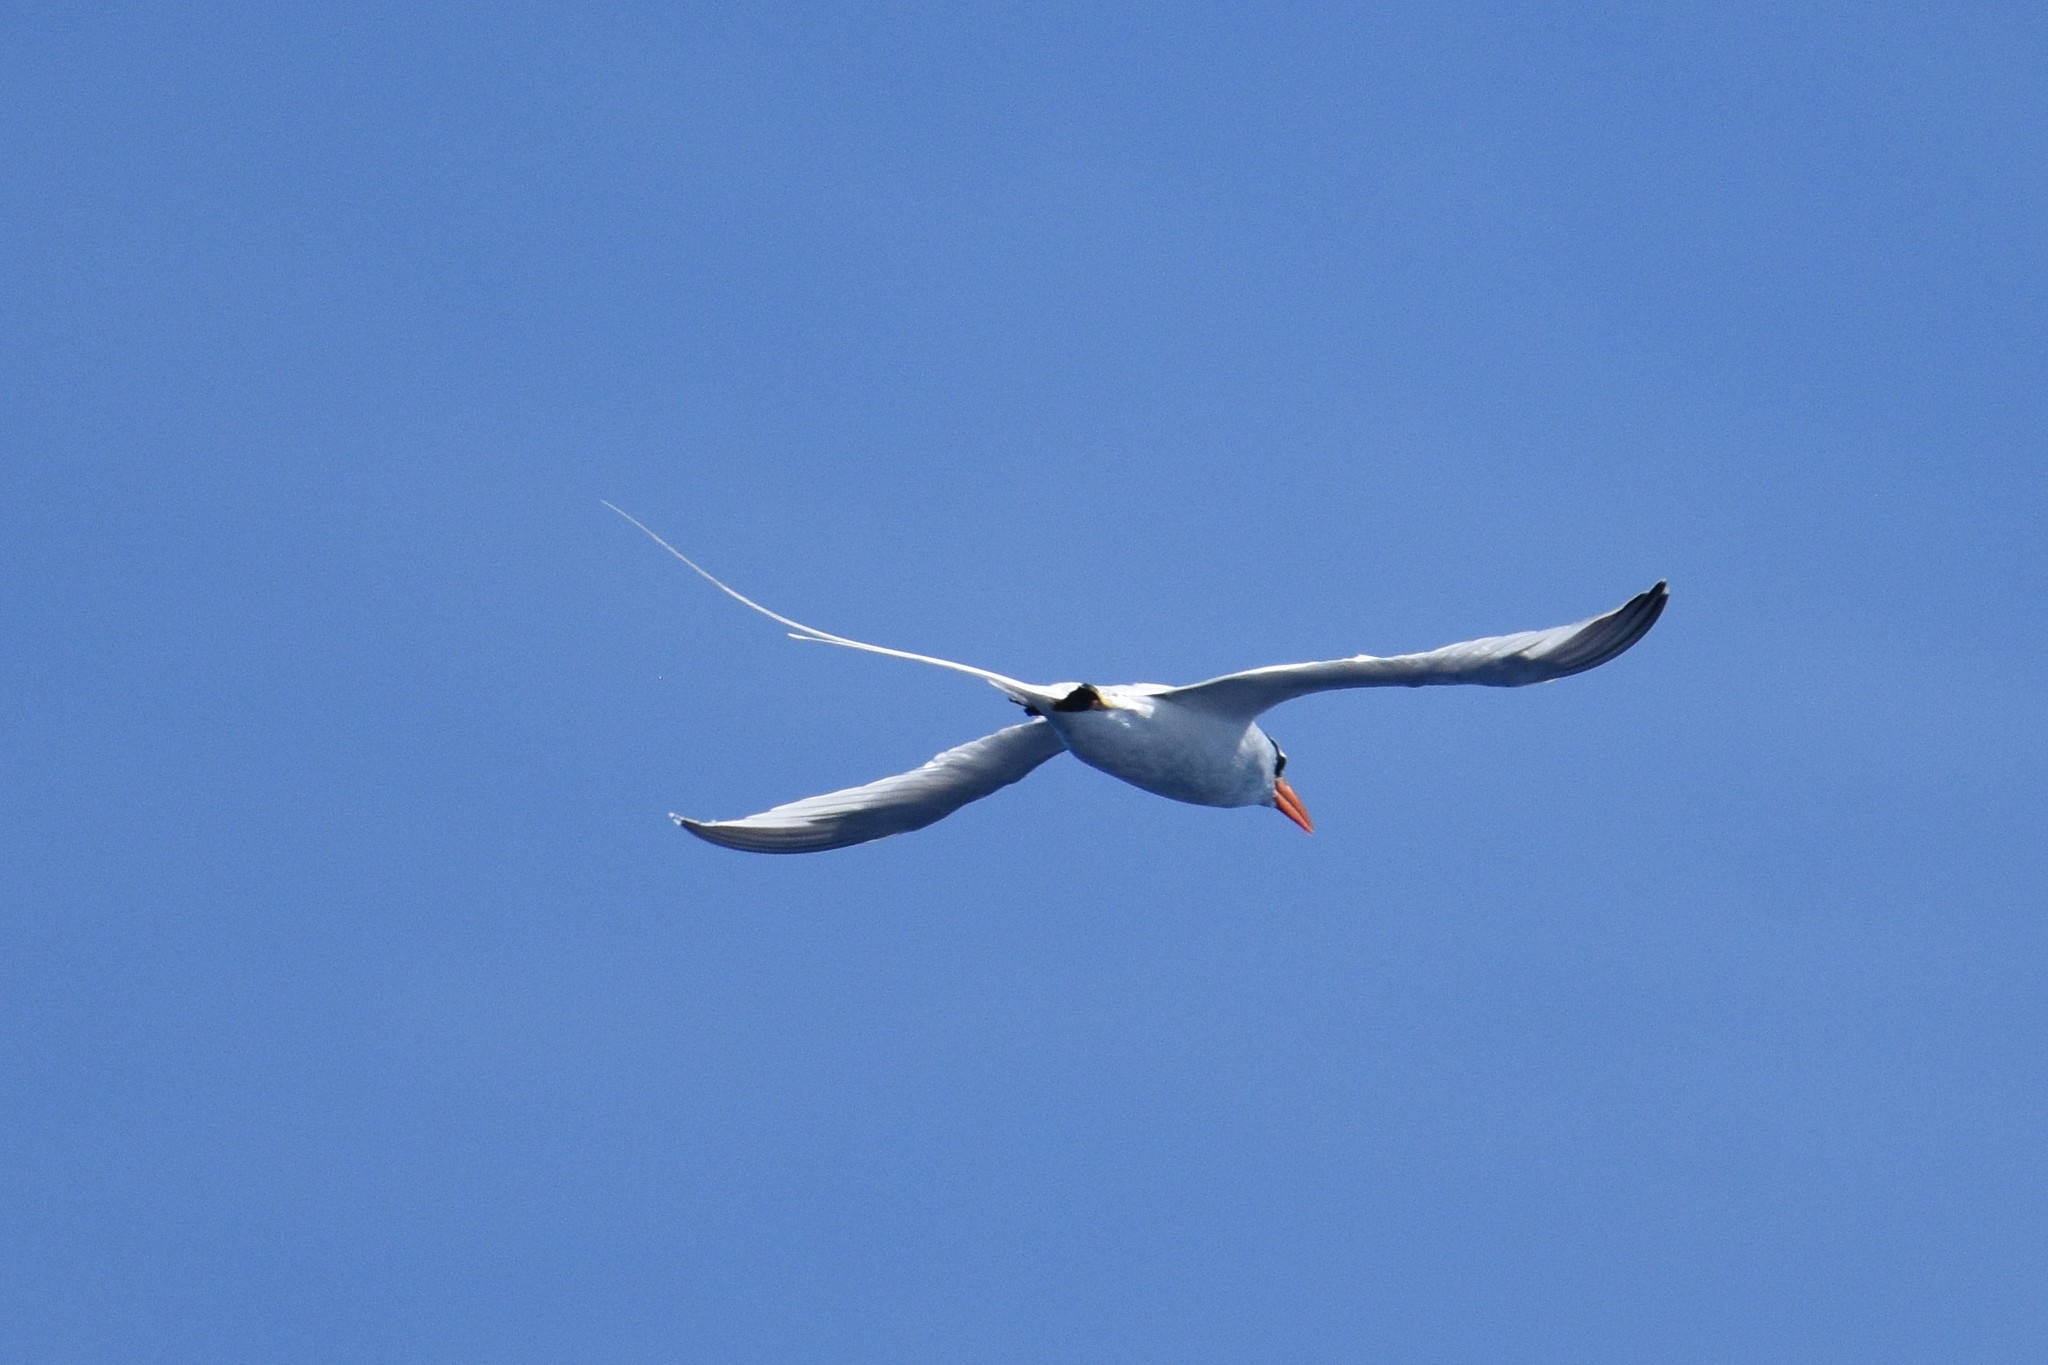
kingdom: Animalia
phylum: Chordata
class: Aves
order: Phaethontiformes
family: Phaethontidae
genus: Phaethon
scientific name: Phaethon aethereus
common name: Red-billed tropicbird
